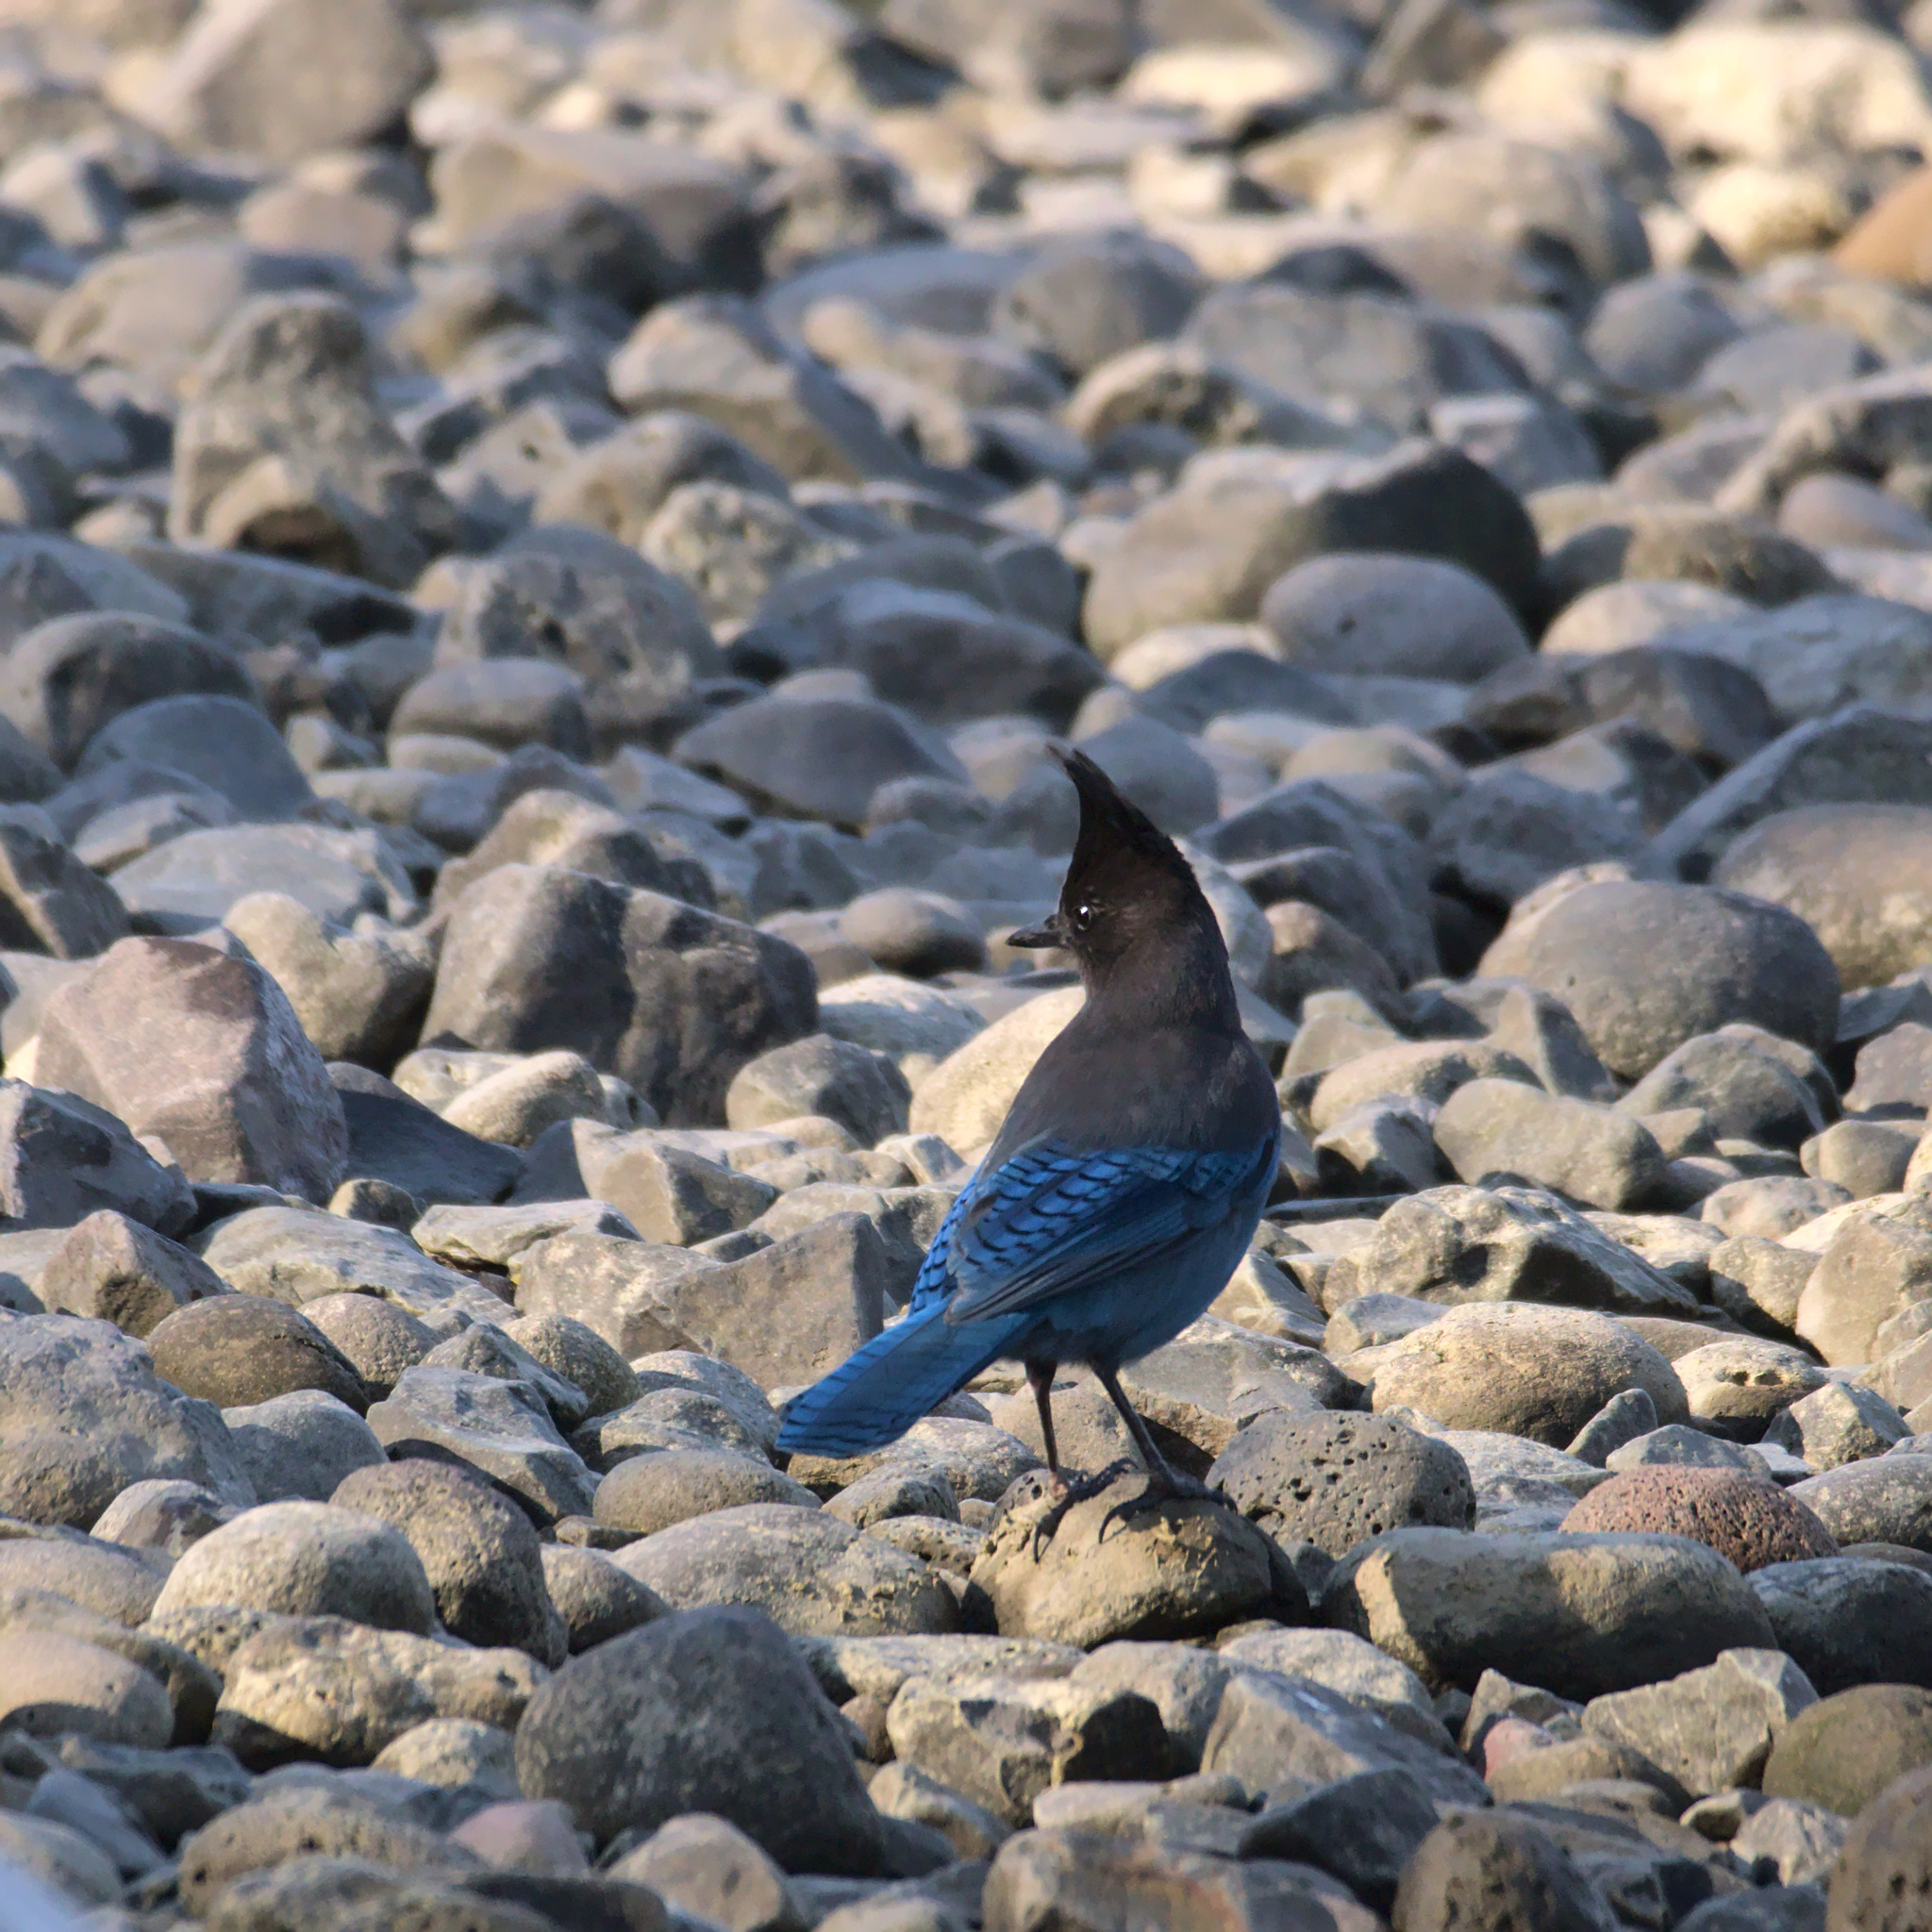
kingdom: Animalia
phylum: Chordata
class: Aves
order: Passeriformes
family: Corvidae
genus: Cyanocitta
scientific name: Cyanocitta stelleri
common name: Steller's jay
